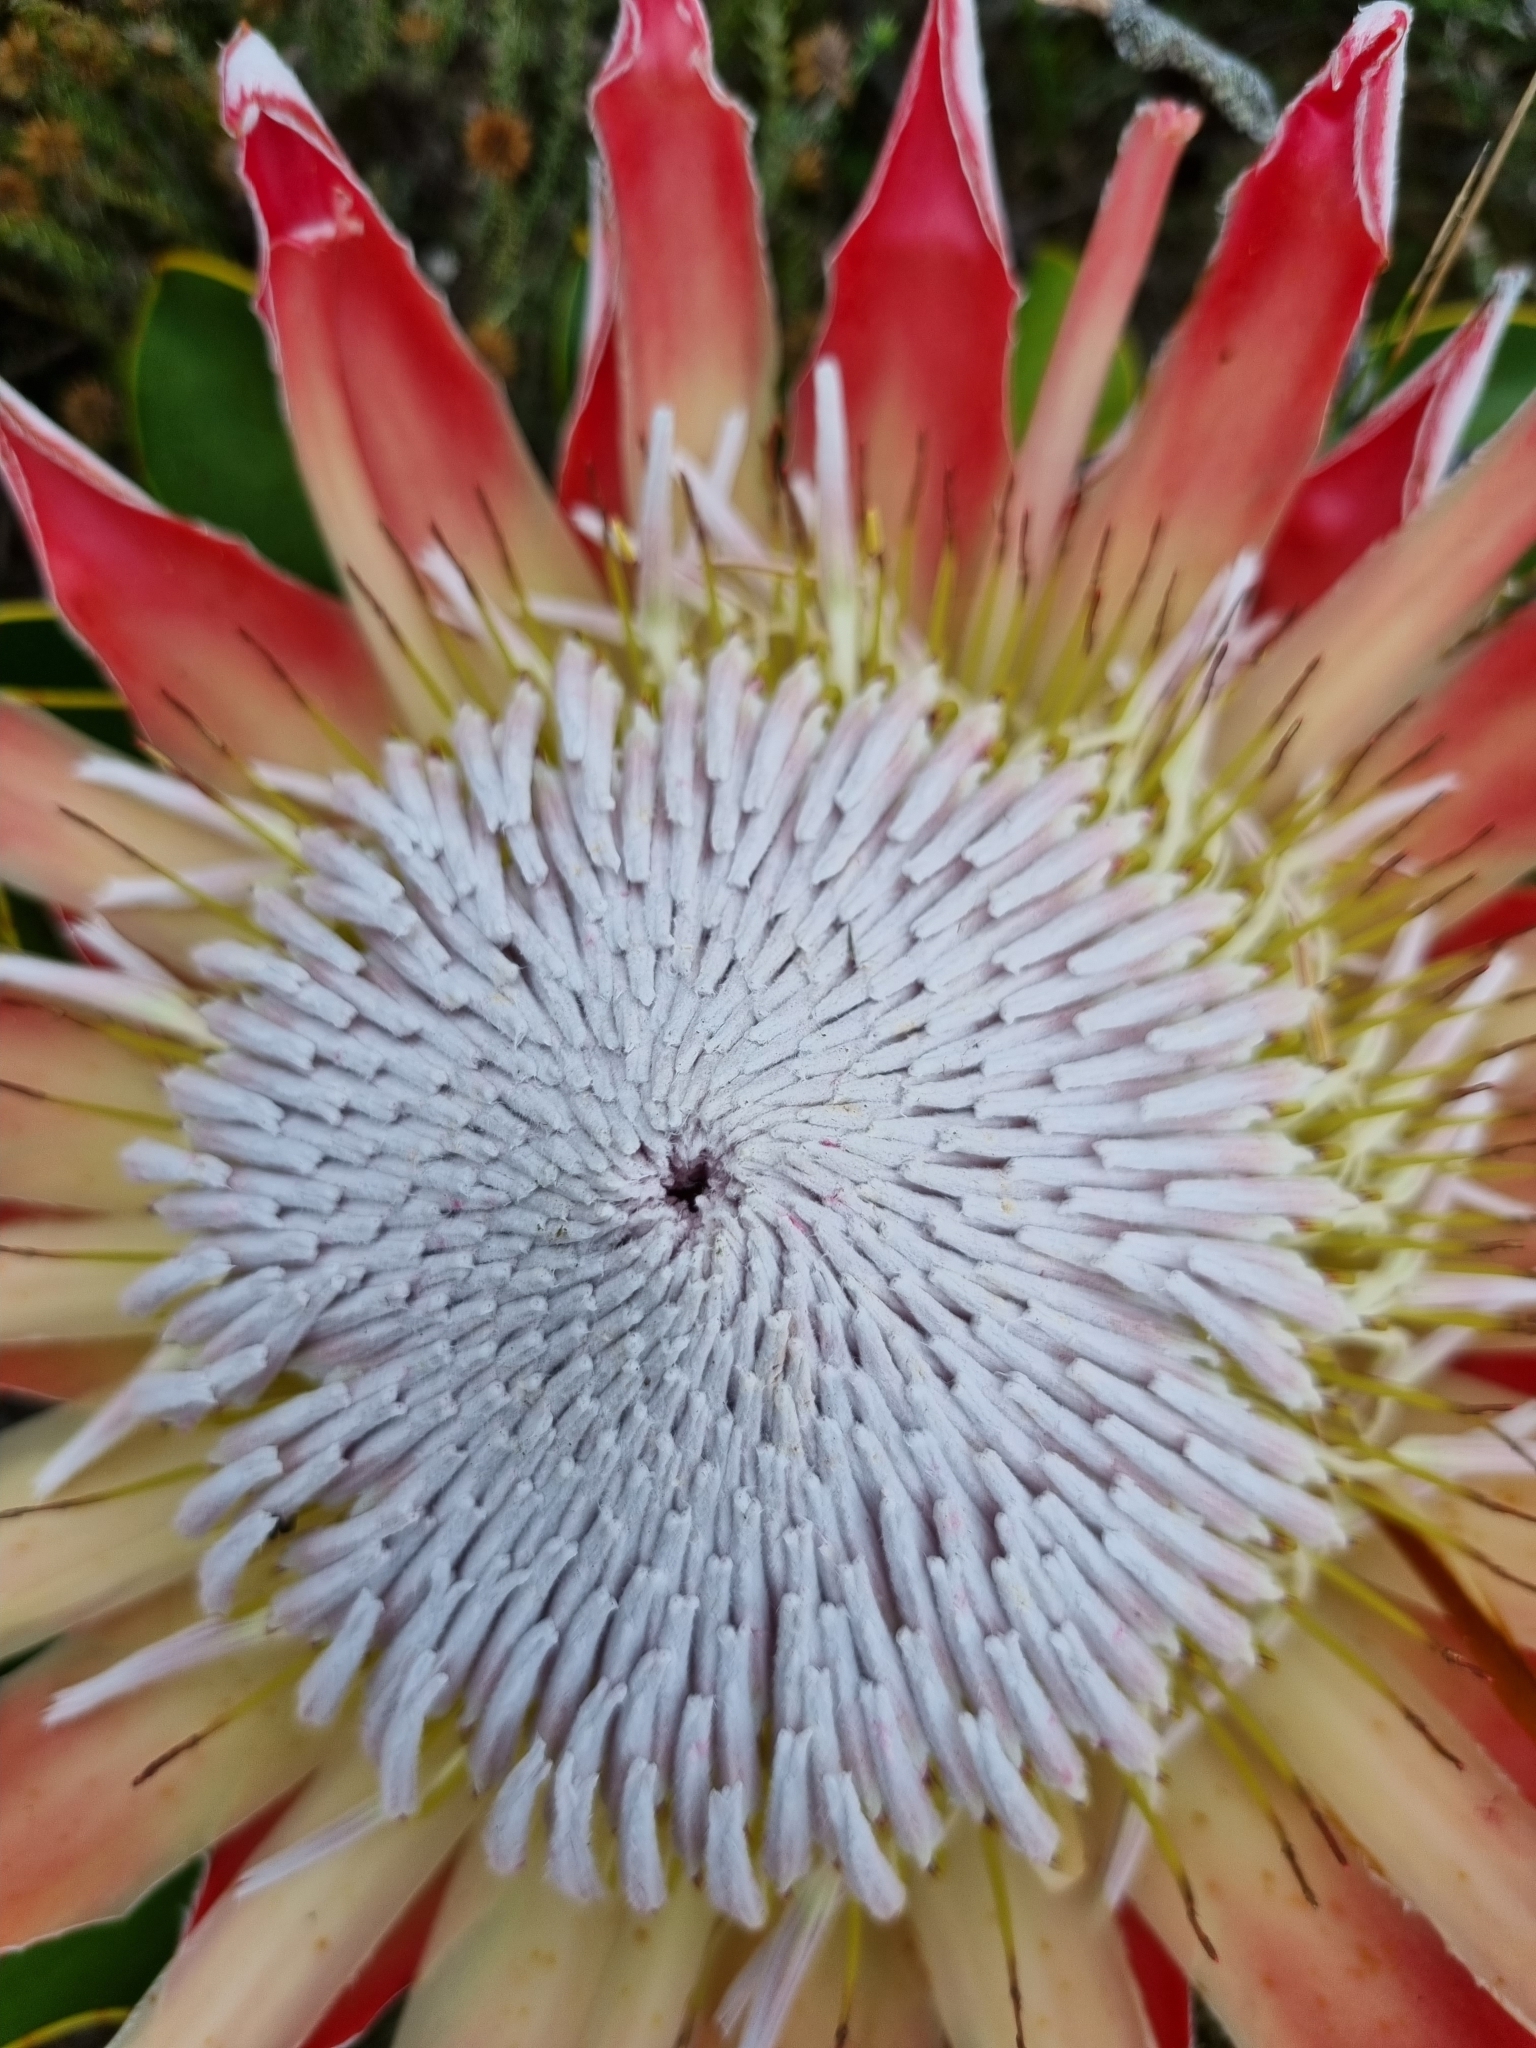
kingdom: Plantae
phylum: Tracheophyta
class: Magnoliopsida
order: Proteales
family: Proteaceae
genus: Protea
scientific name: Protea cynaroides
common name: King protea
